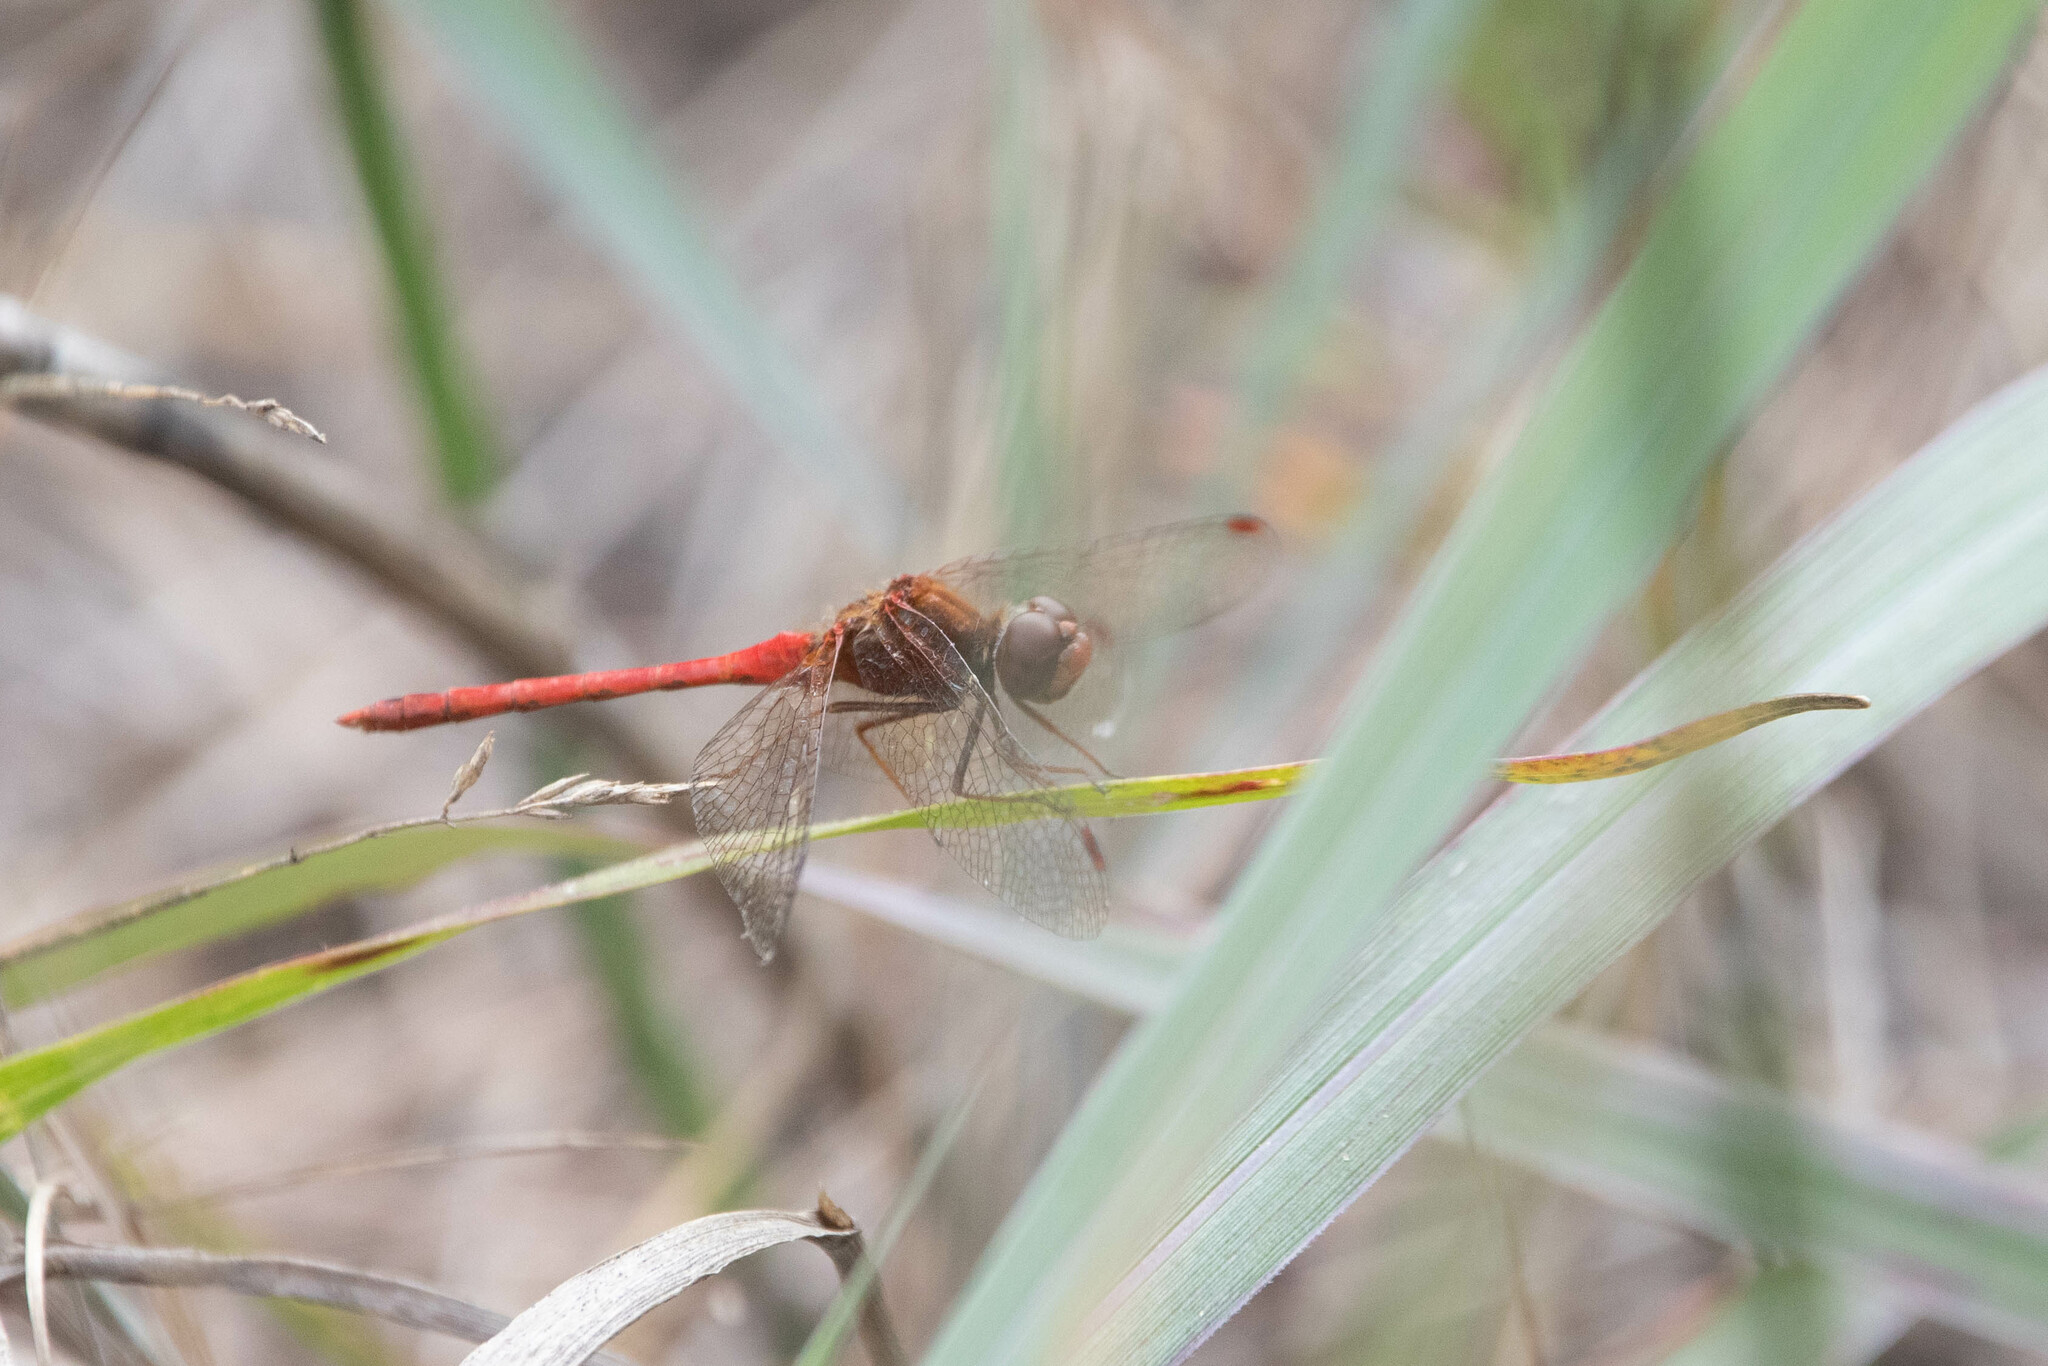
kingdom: Animalia
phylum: Arthropoda
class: Insecta
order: Odonata
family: Libellulidae
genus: Sympetrum
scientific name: Sympetrum vicinum
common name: Autumn meadowhawk
